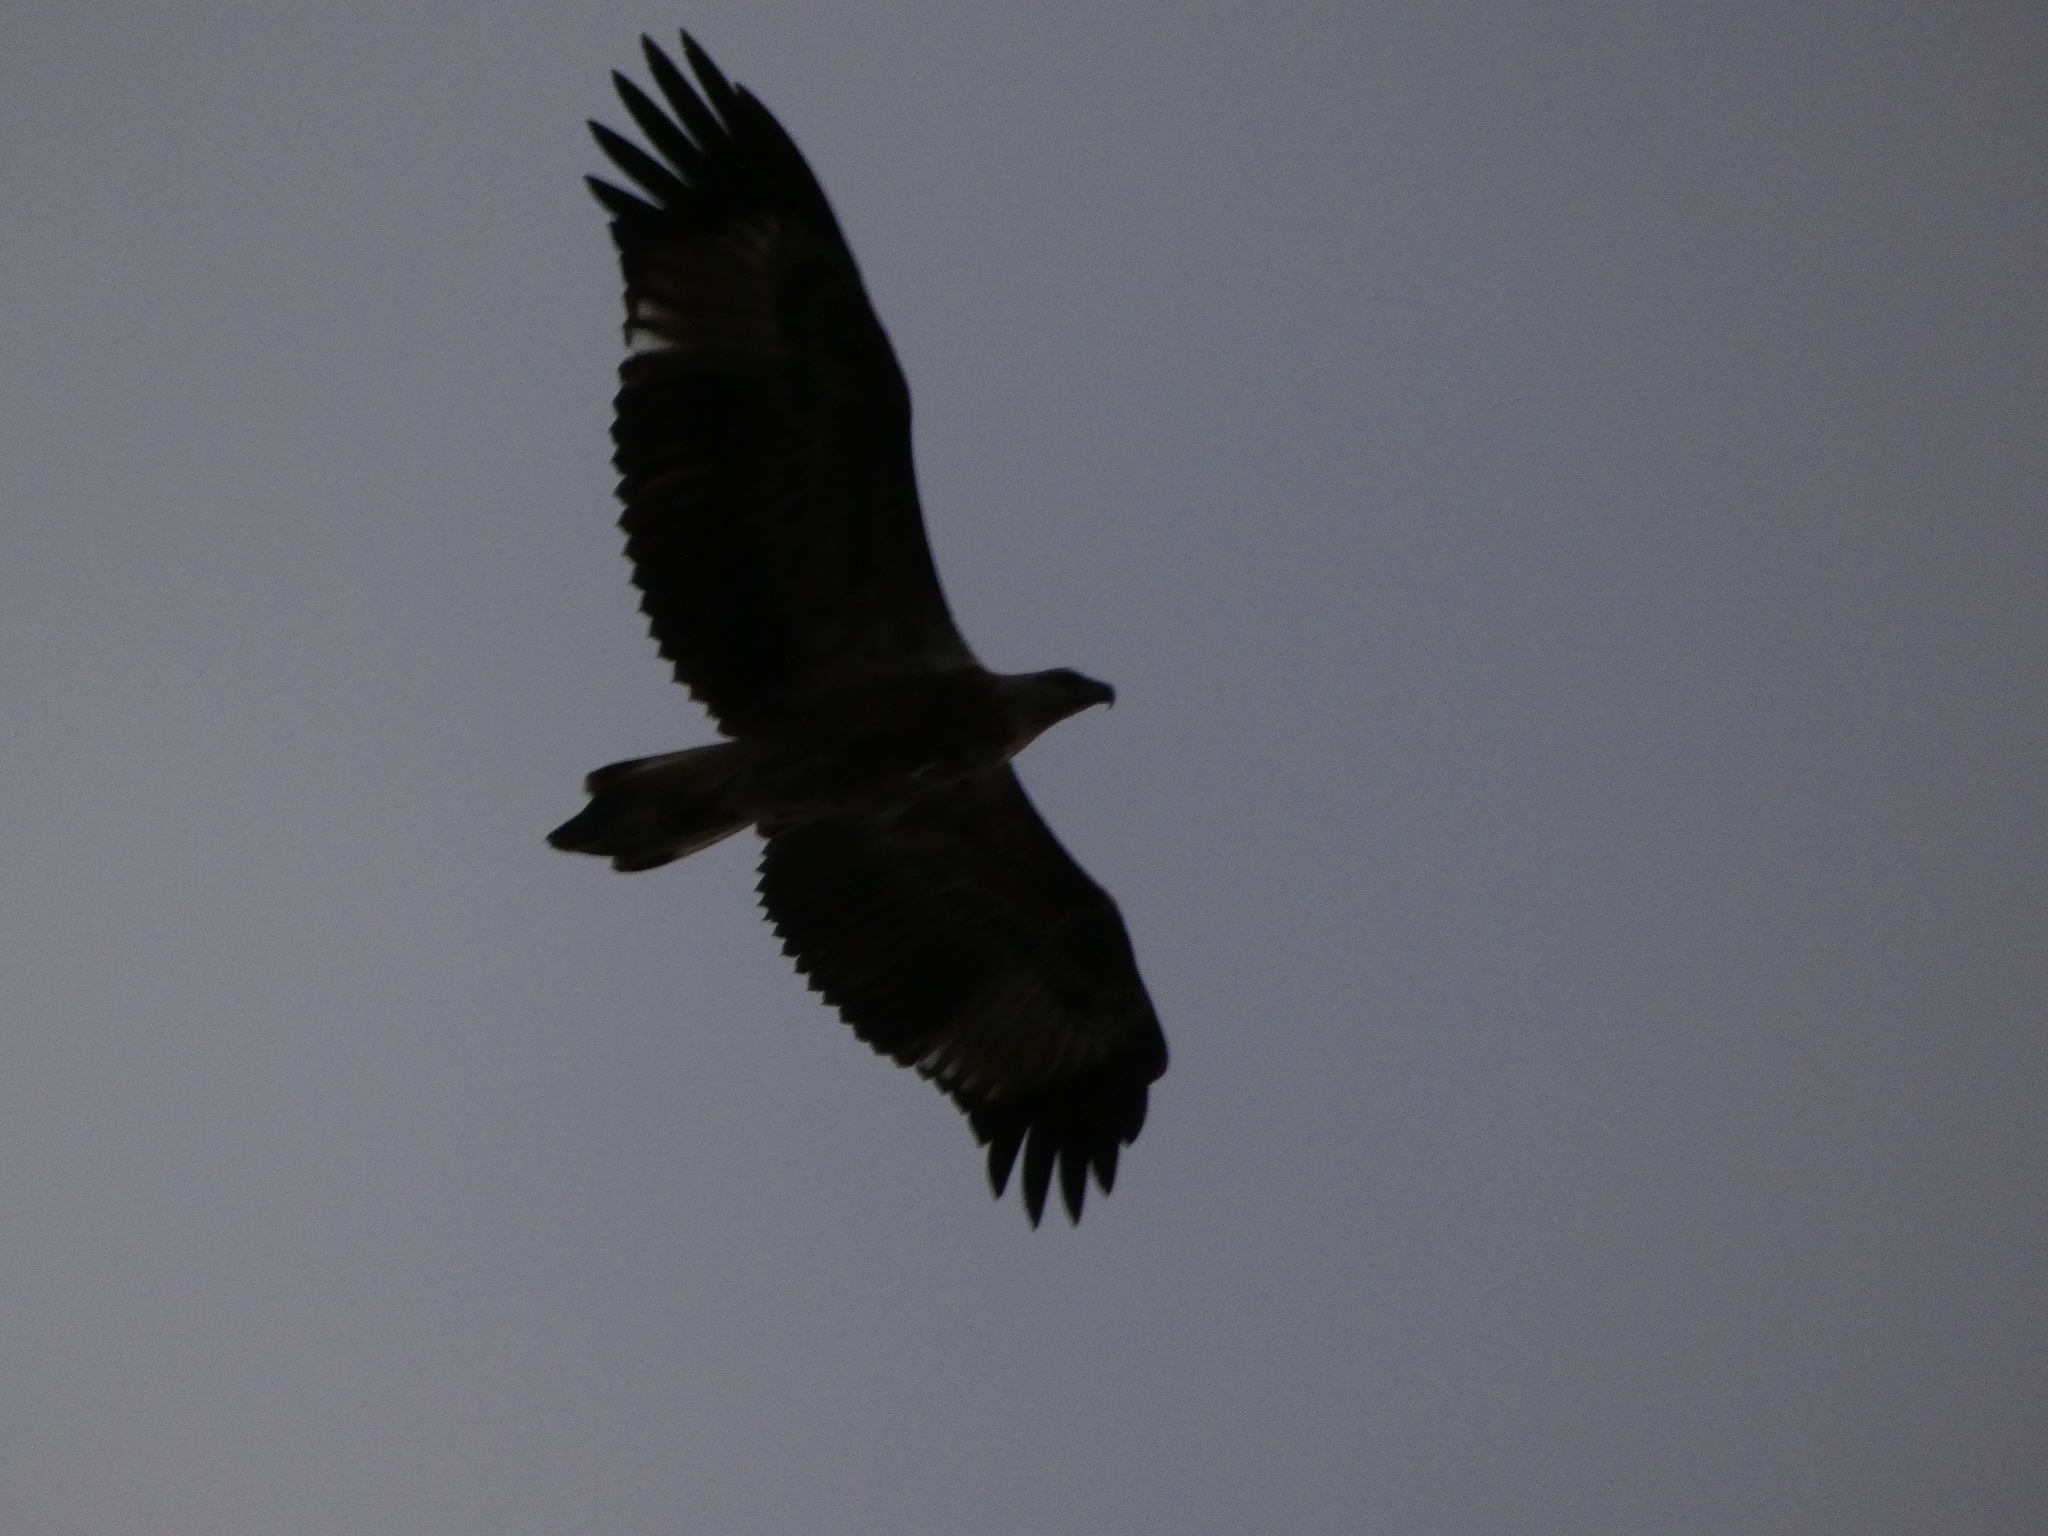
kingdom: Animalia
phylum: Chordata
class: Aves
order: Accipitriformes
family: Accipitridae
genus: Haliaeetus
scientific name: Haliaeetus leucogaster
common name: White-bellied sea eagle
